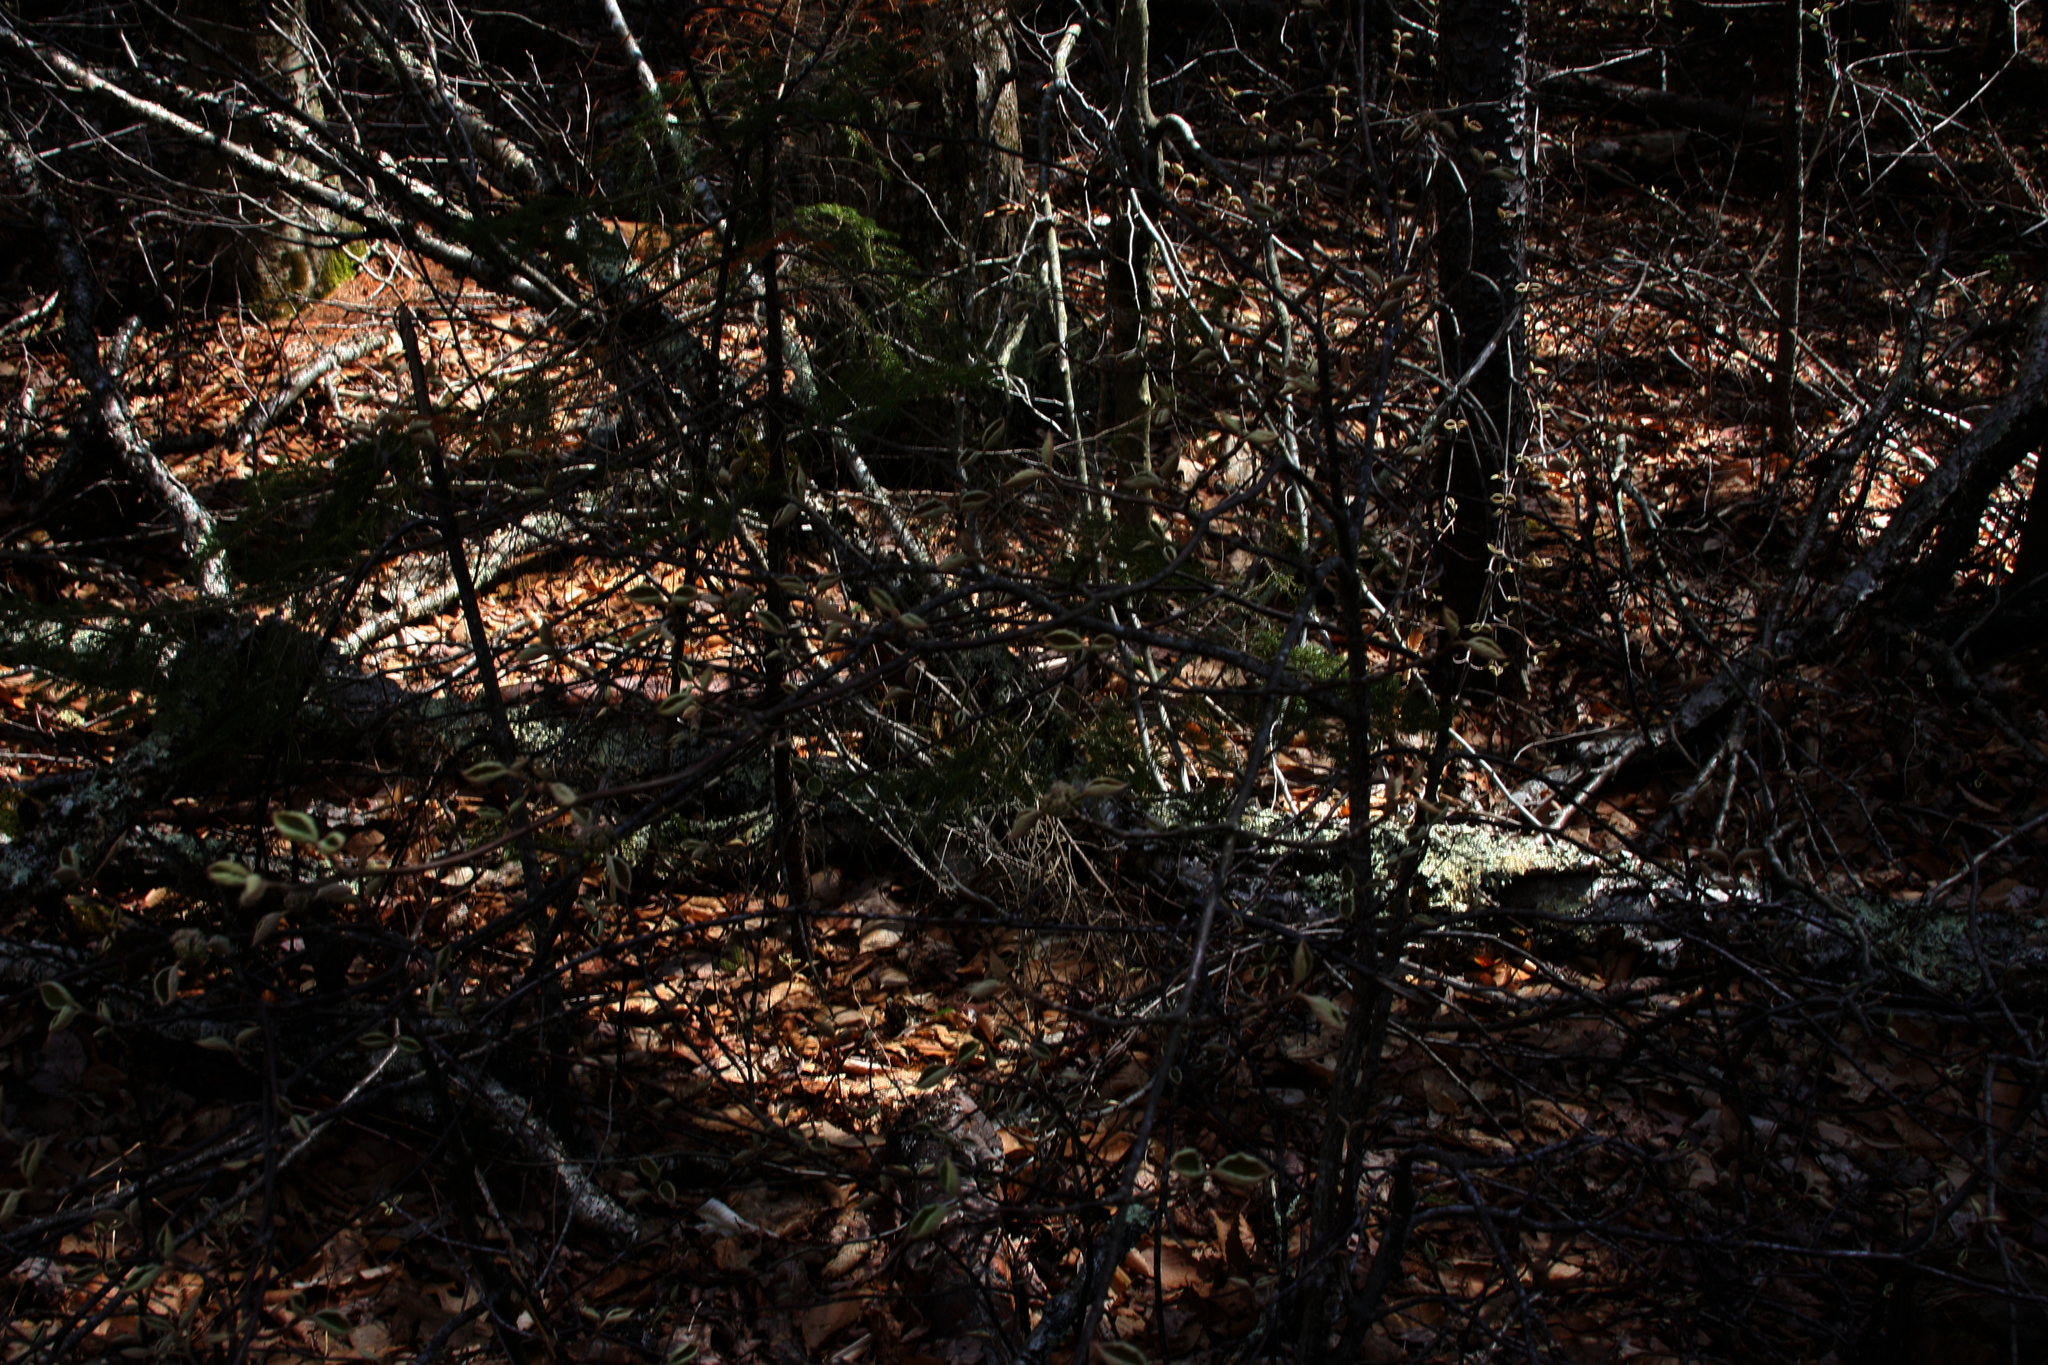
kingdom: Plantae
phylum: Tracheophyta
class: Magnoliopsida
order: Dipsacales
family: Viburnaceae
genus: Viburnum
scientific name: Viburnum lantanoides
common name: Hobblebush
